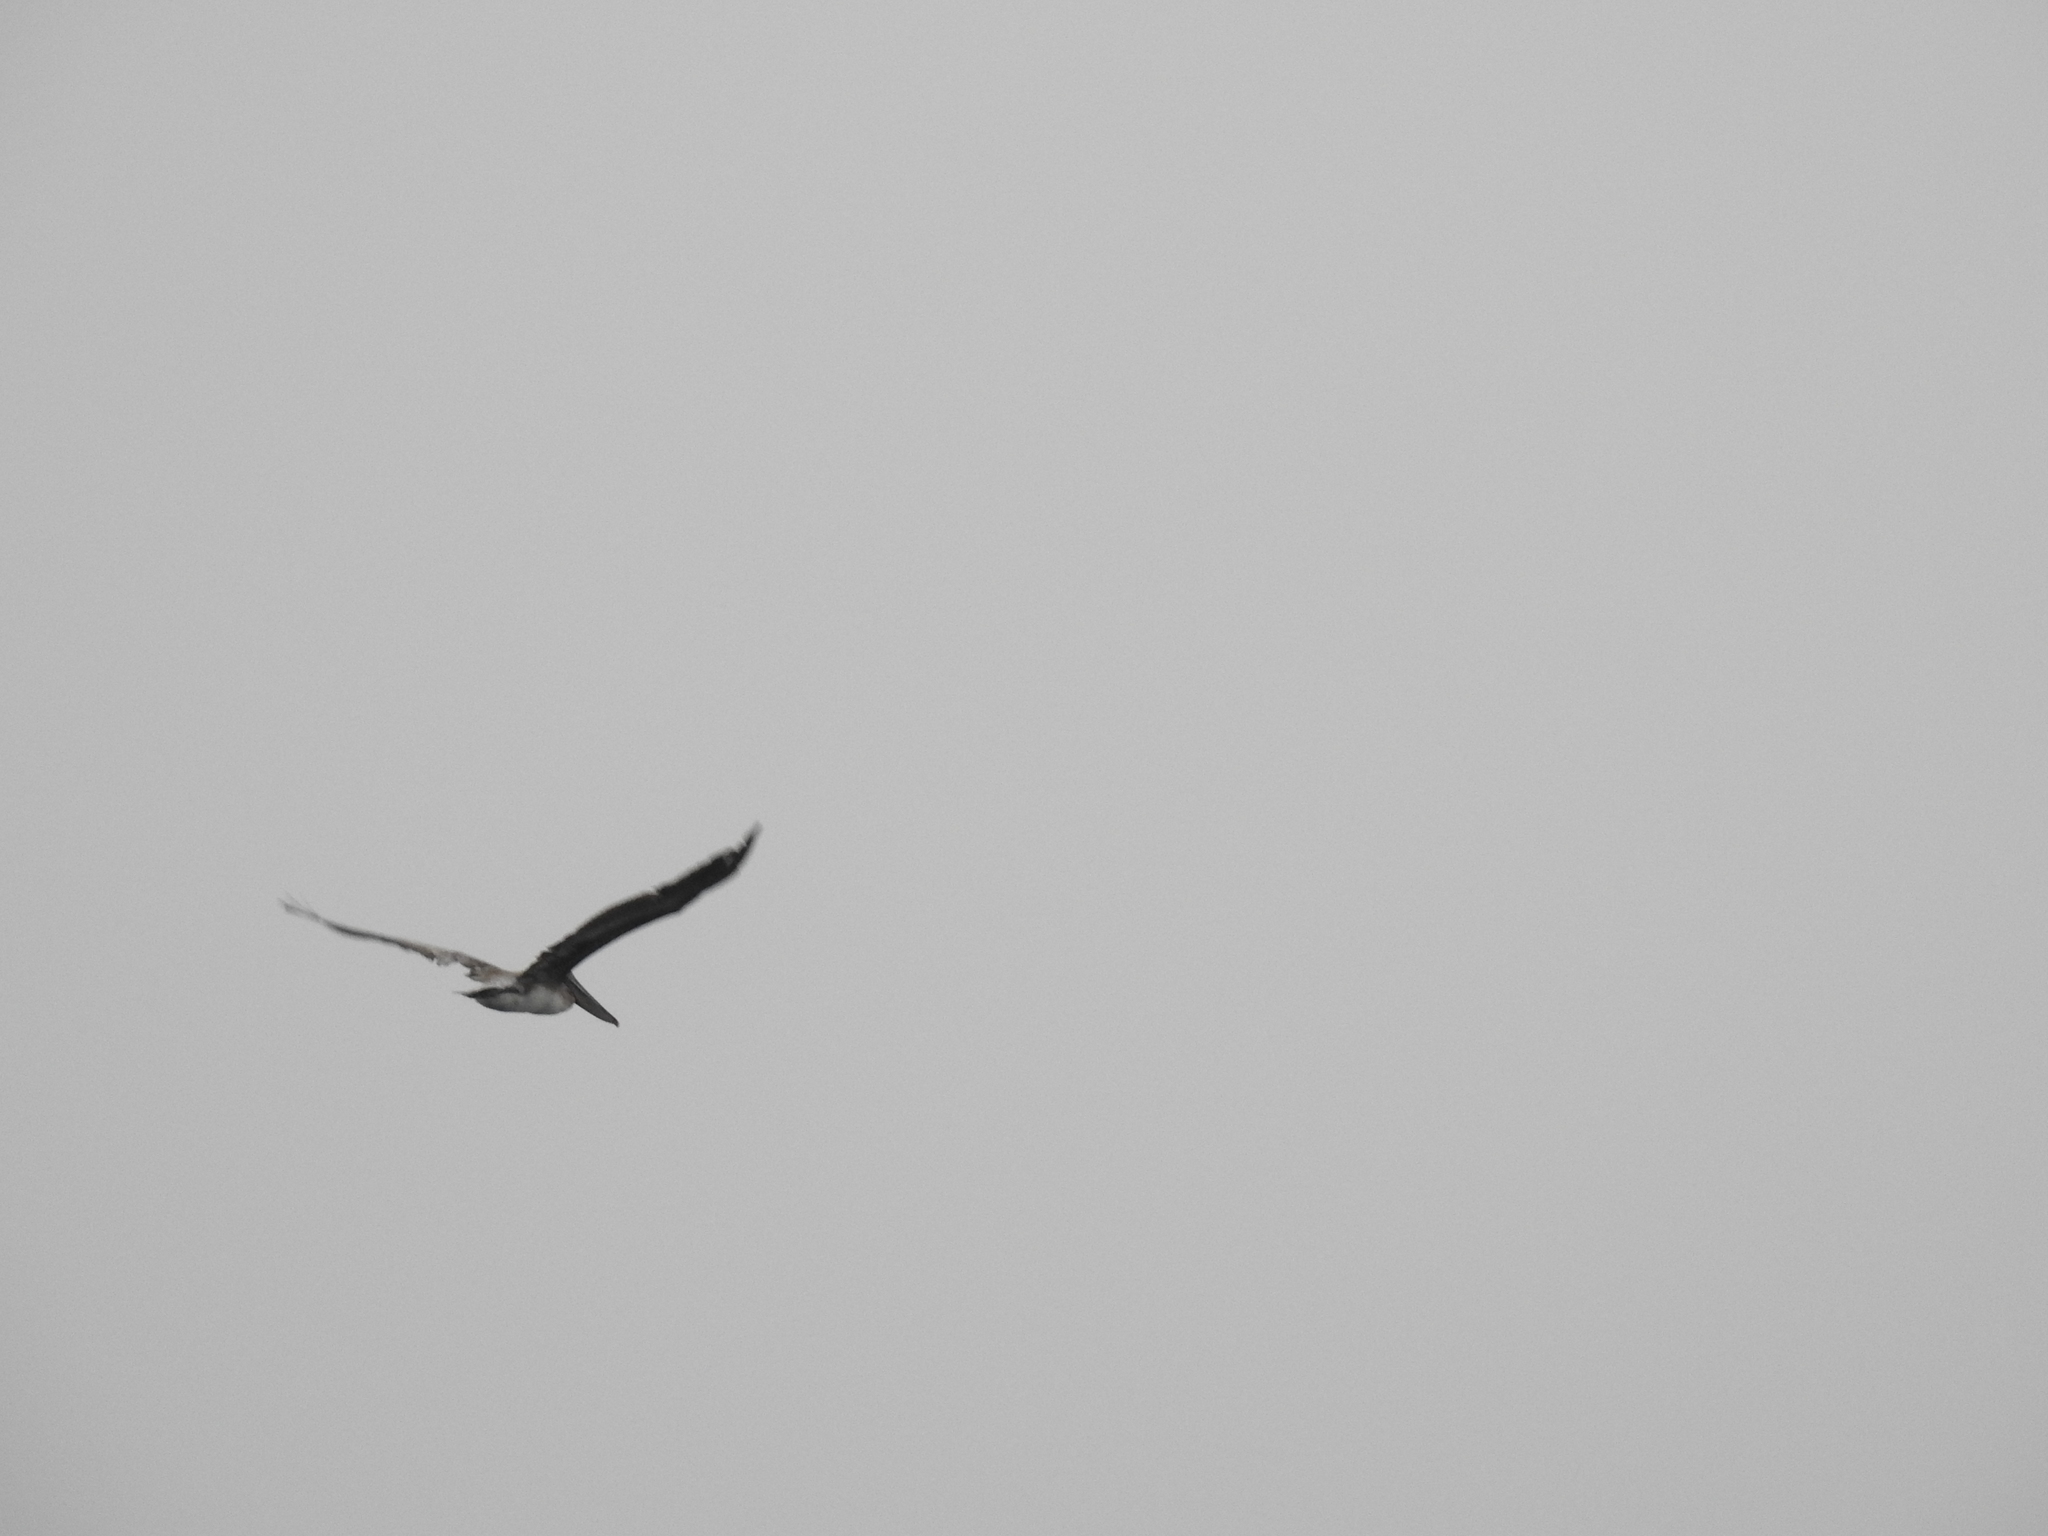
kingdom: Animalia
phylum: Chordata
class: Aves
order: Pelecaniformes
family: Pelecanidae
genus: Pelecanus
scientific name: Pelecanus occidentalis
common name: Brown pelican
